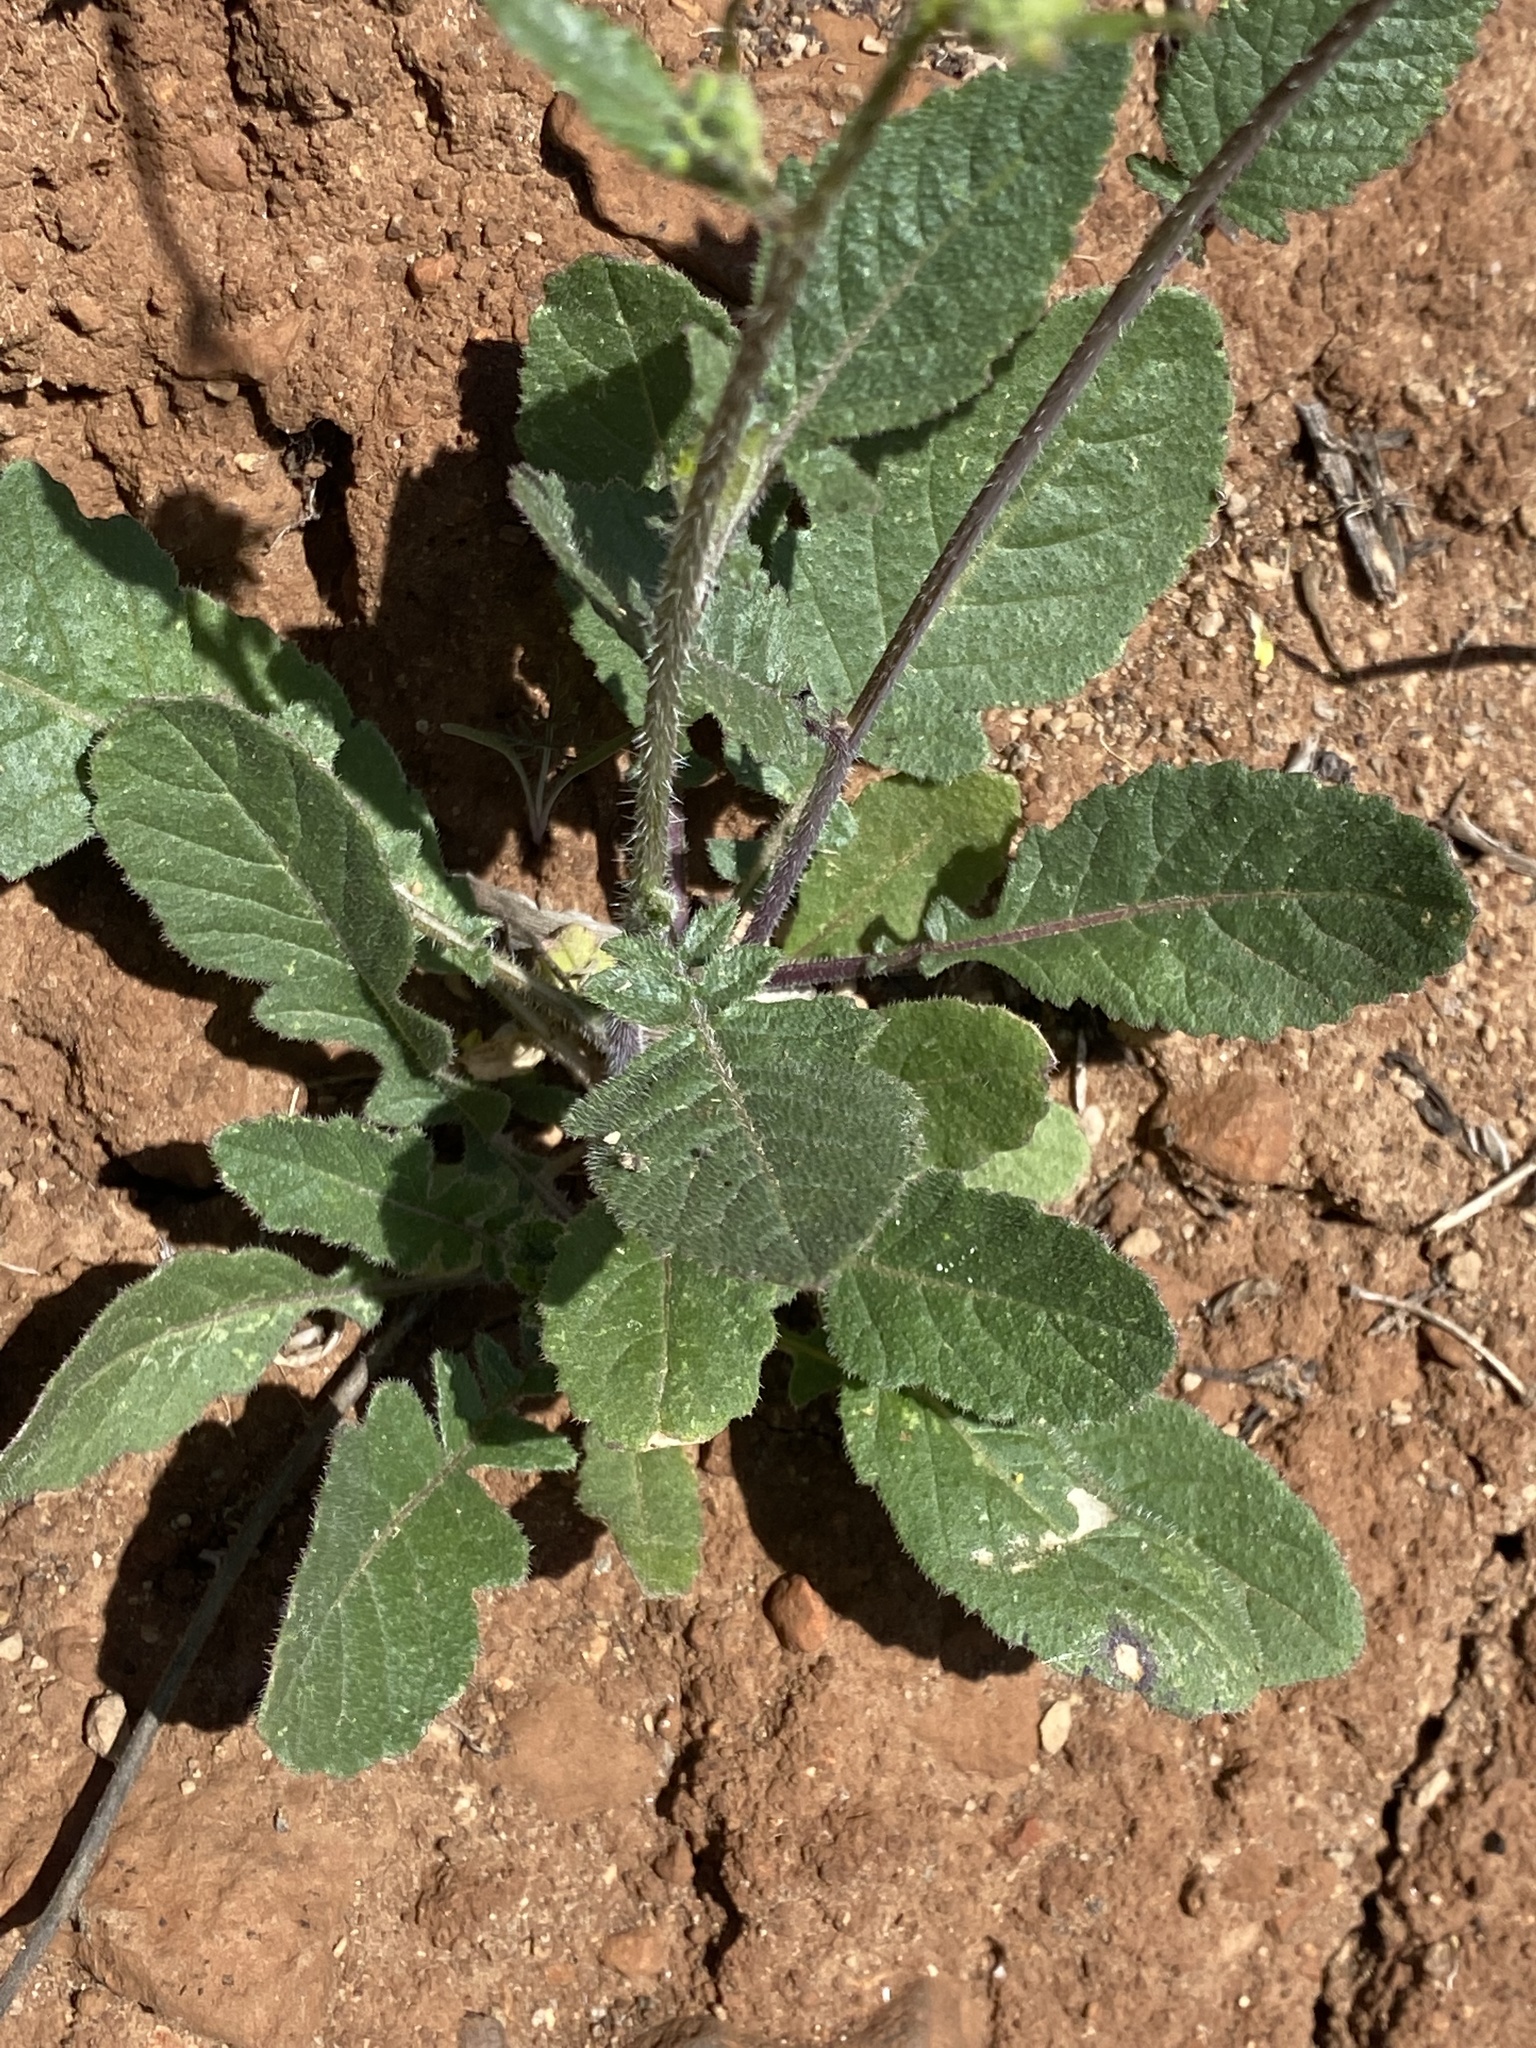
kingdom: Plantae
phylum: Tracheophyta
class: Magnoliopsida
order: Brassicales
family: Brassicaceae
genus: Erucastrum
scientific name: Erucastrum canariense
